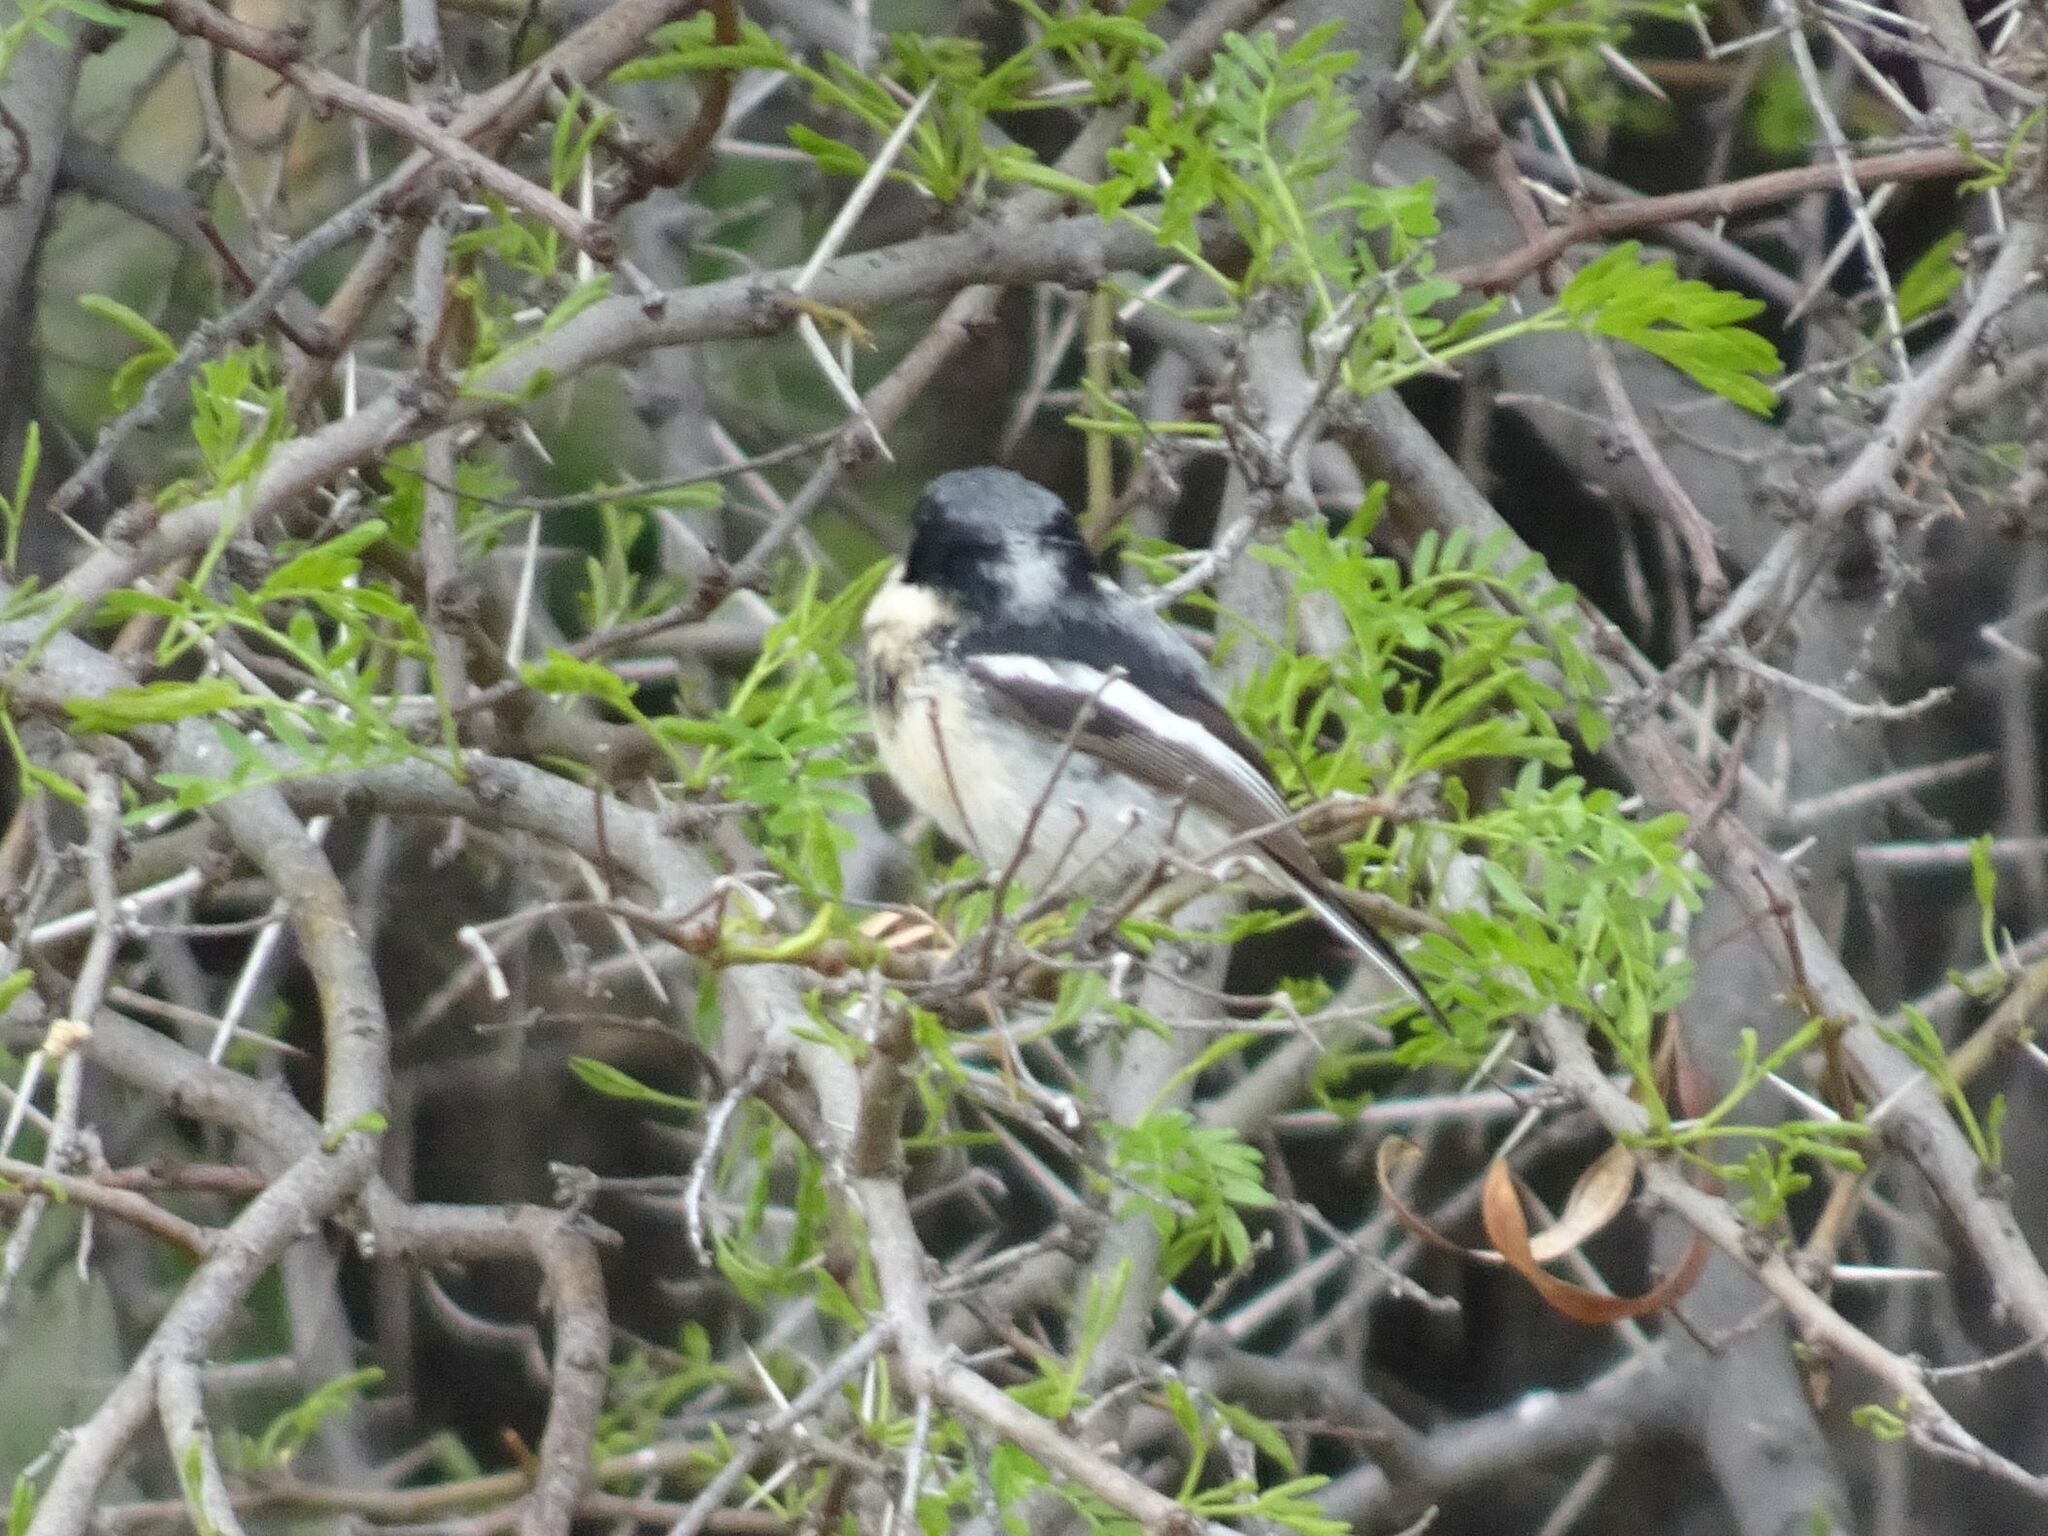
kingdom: Animalia
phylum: Chordata
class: Aves
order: Passeriformes
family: Platysteiridae
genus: Batis
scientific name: Batis pririt
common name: Pririt batis
